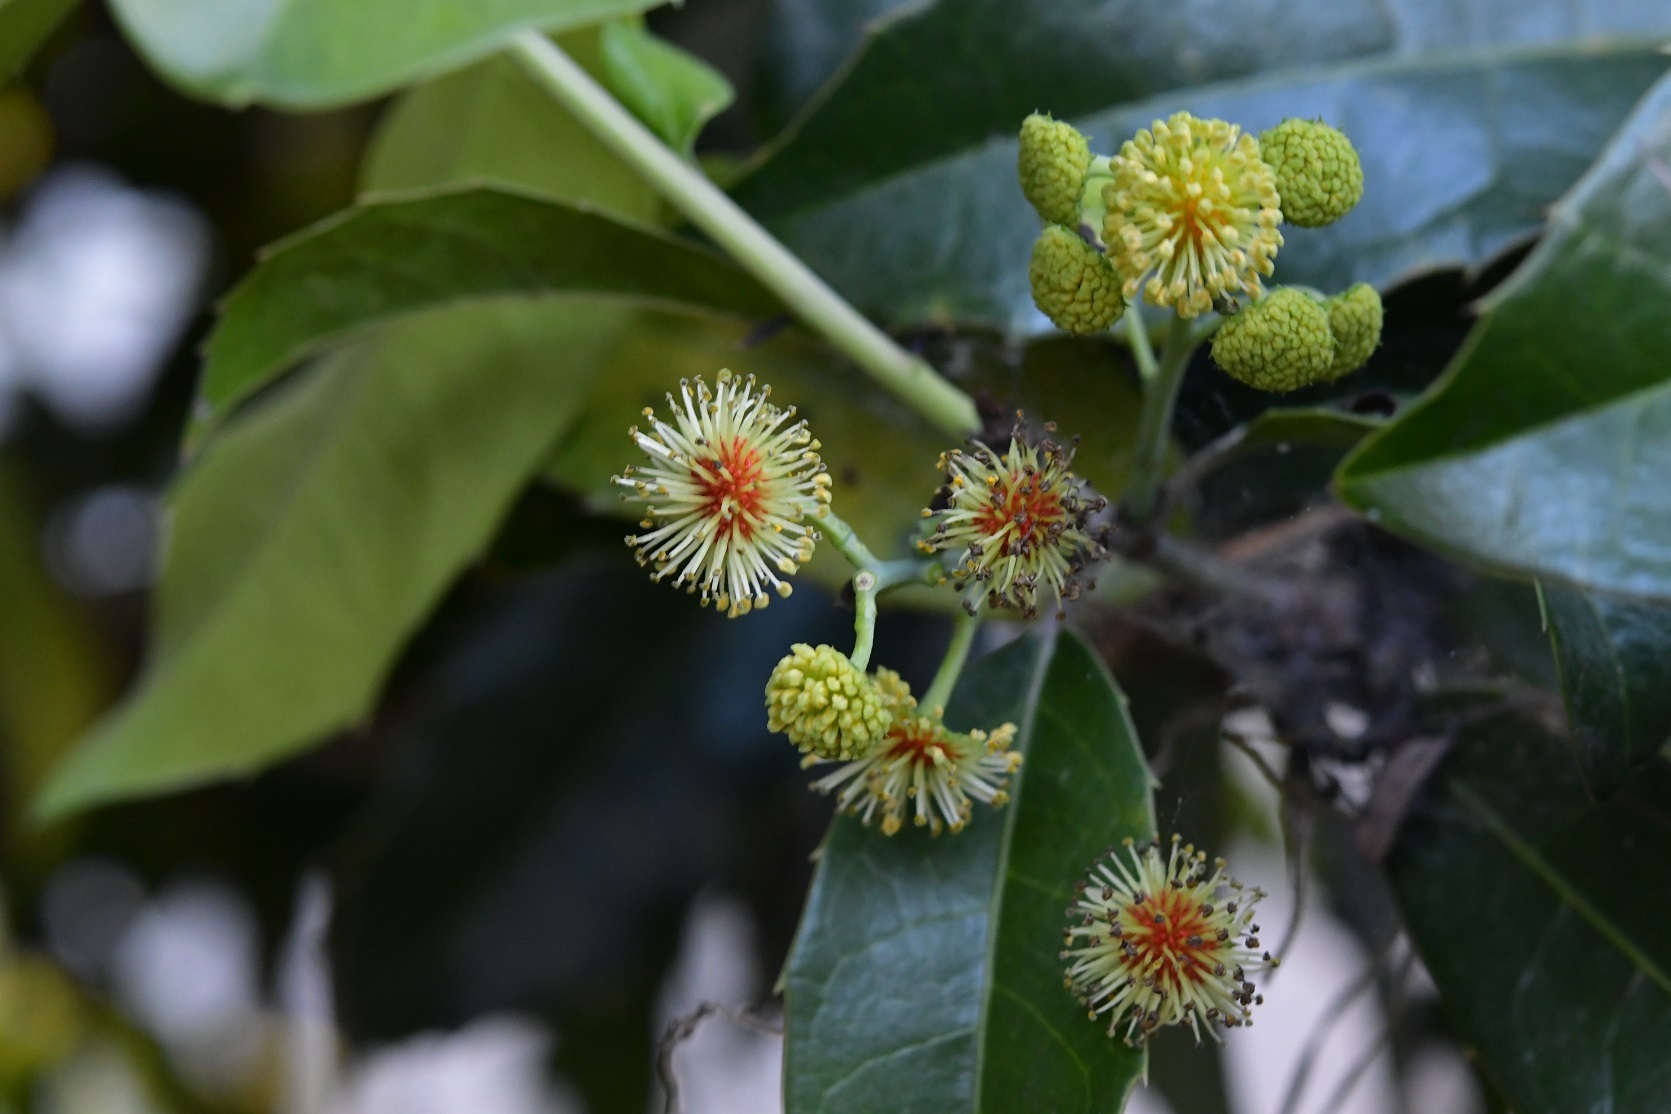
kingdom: Plantae
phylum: Tracheophyta
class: Magnoliopsida
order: Malpighiales
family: Salicaceae
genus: Olmediella
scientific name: Olmediella betschleriana
